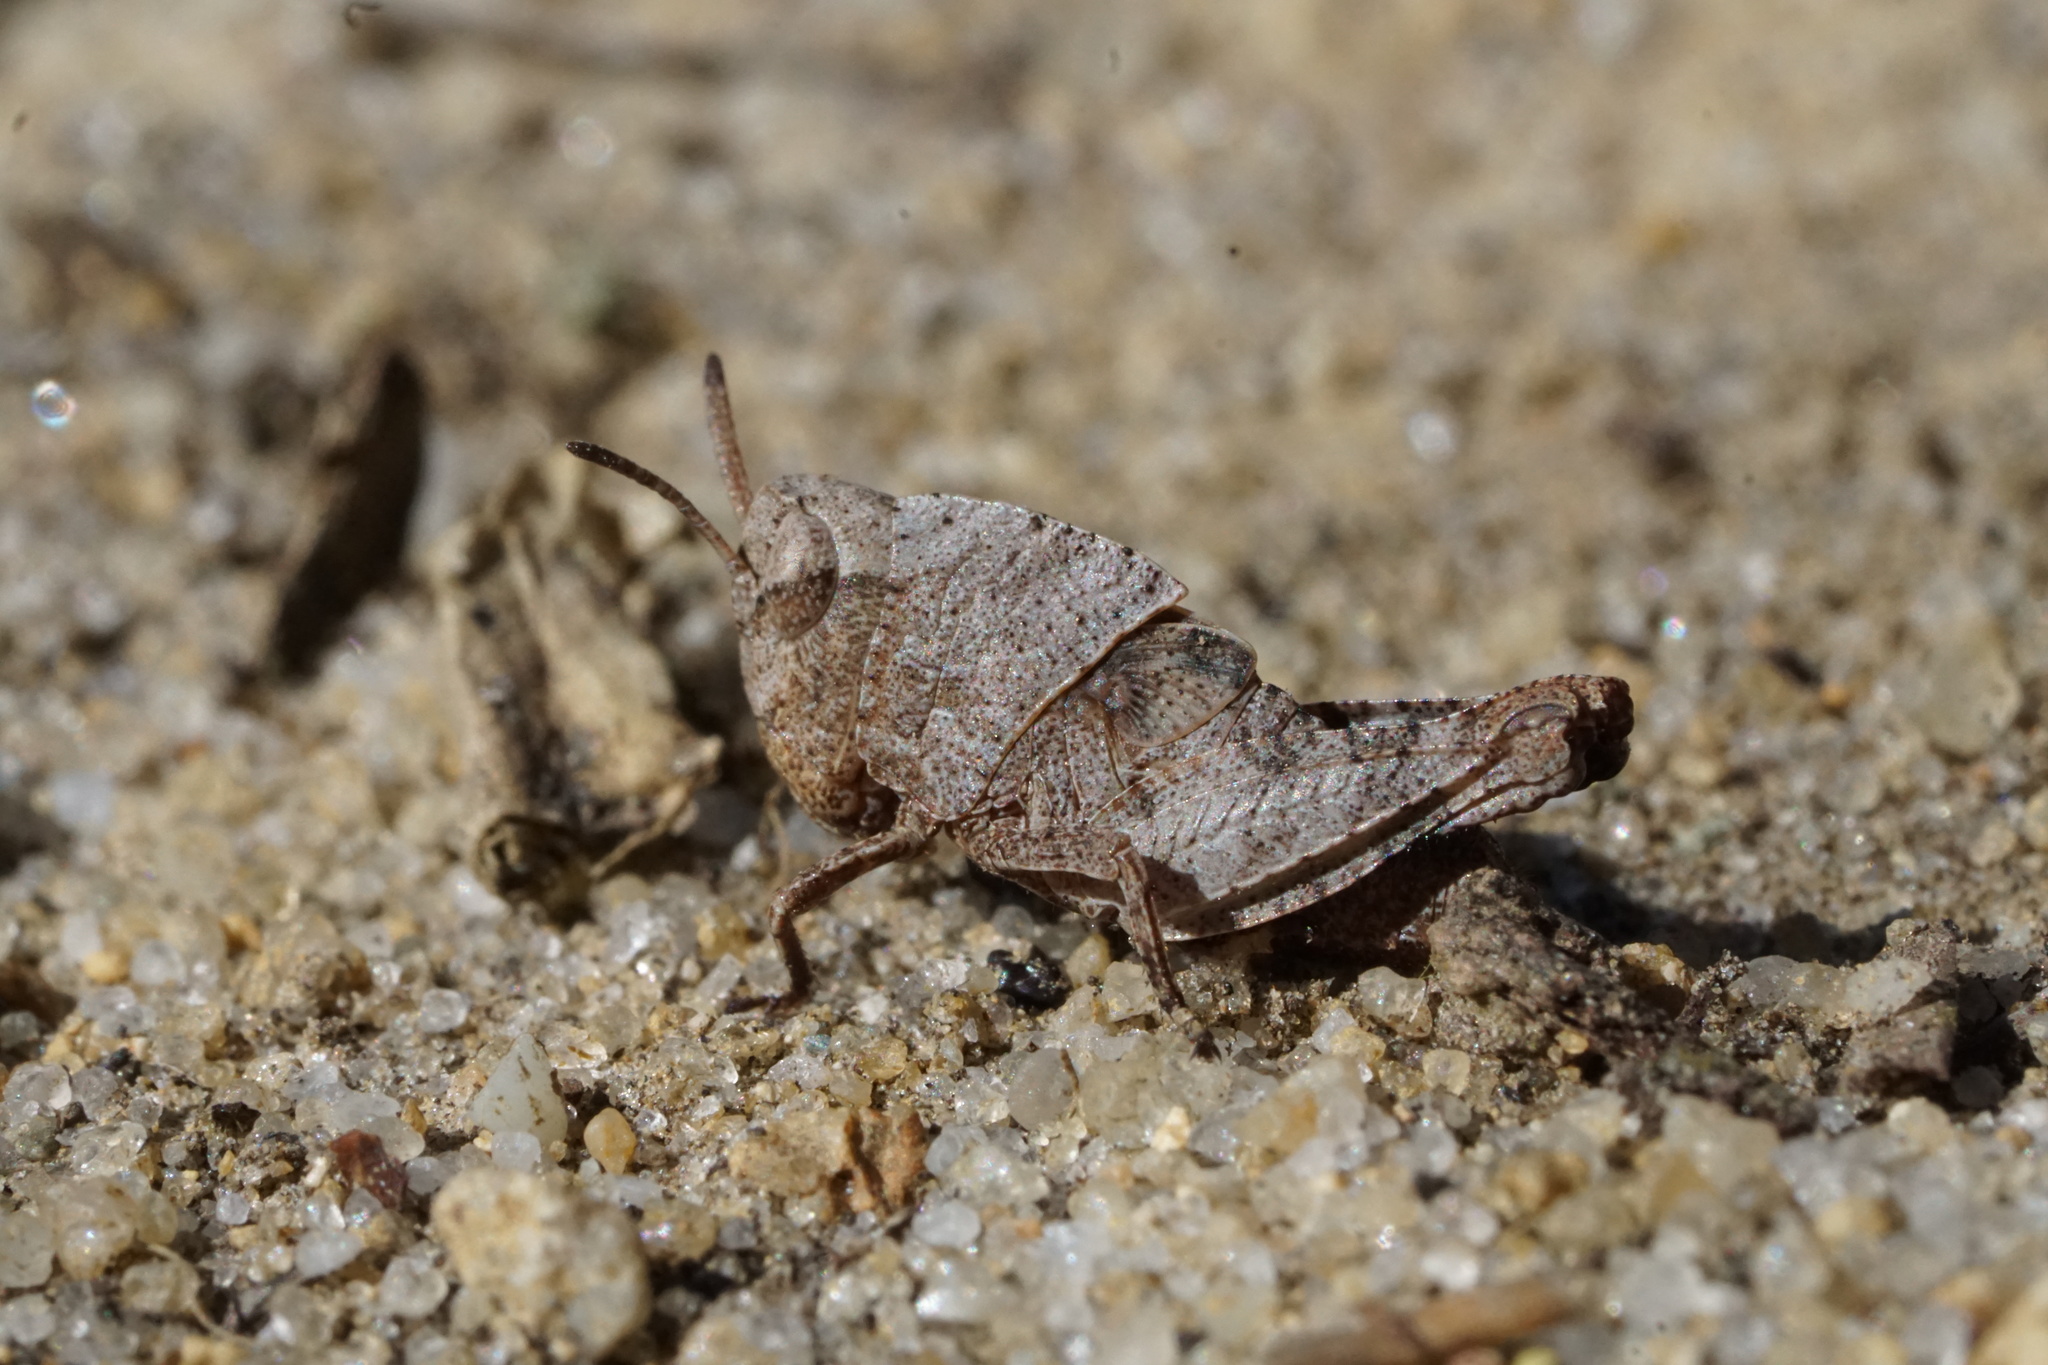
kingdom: Animalia
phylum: Arthropoda
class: Insecta
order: Orthoptera
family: Acrididae
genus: Arphia
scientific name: Arphia sulphurea
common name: Spring yellow-winged locust
